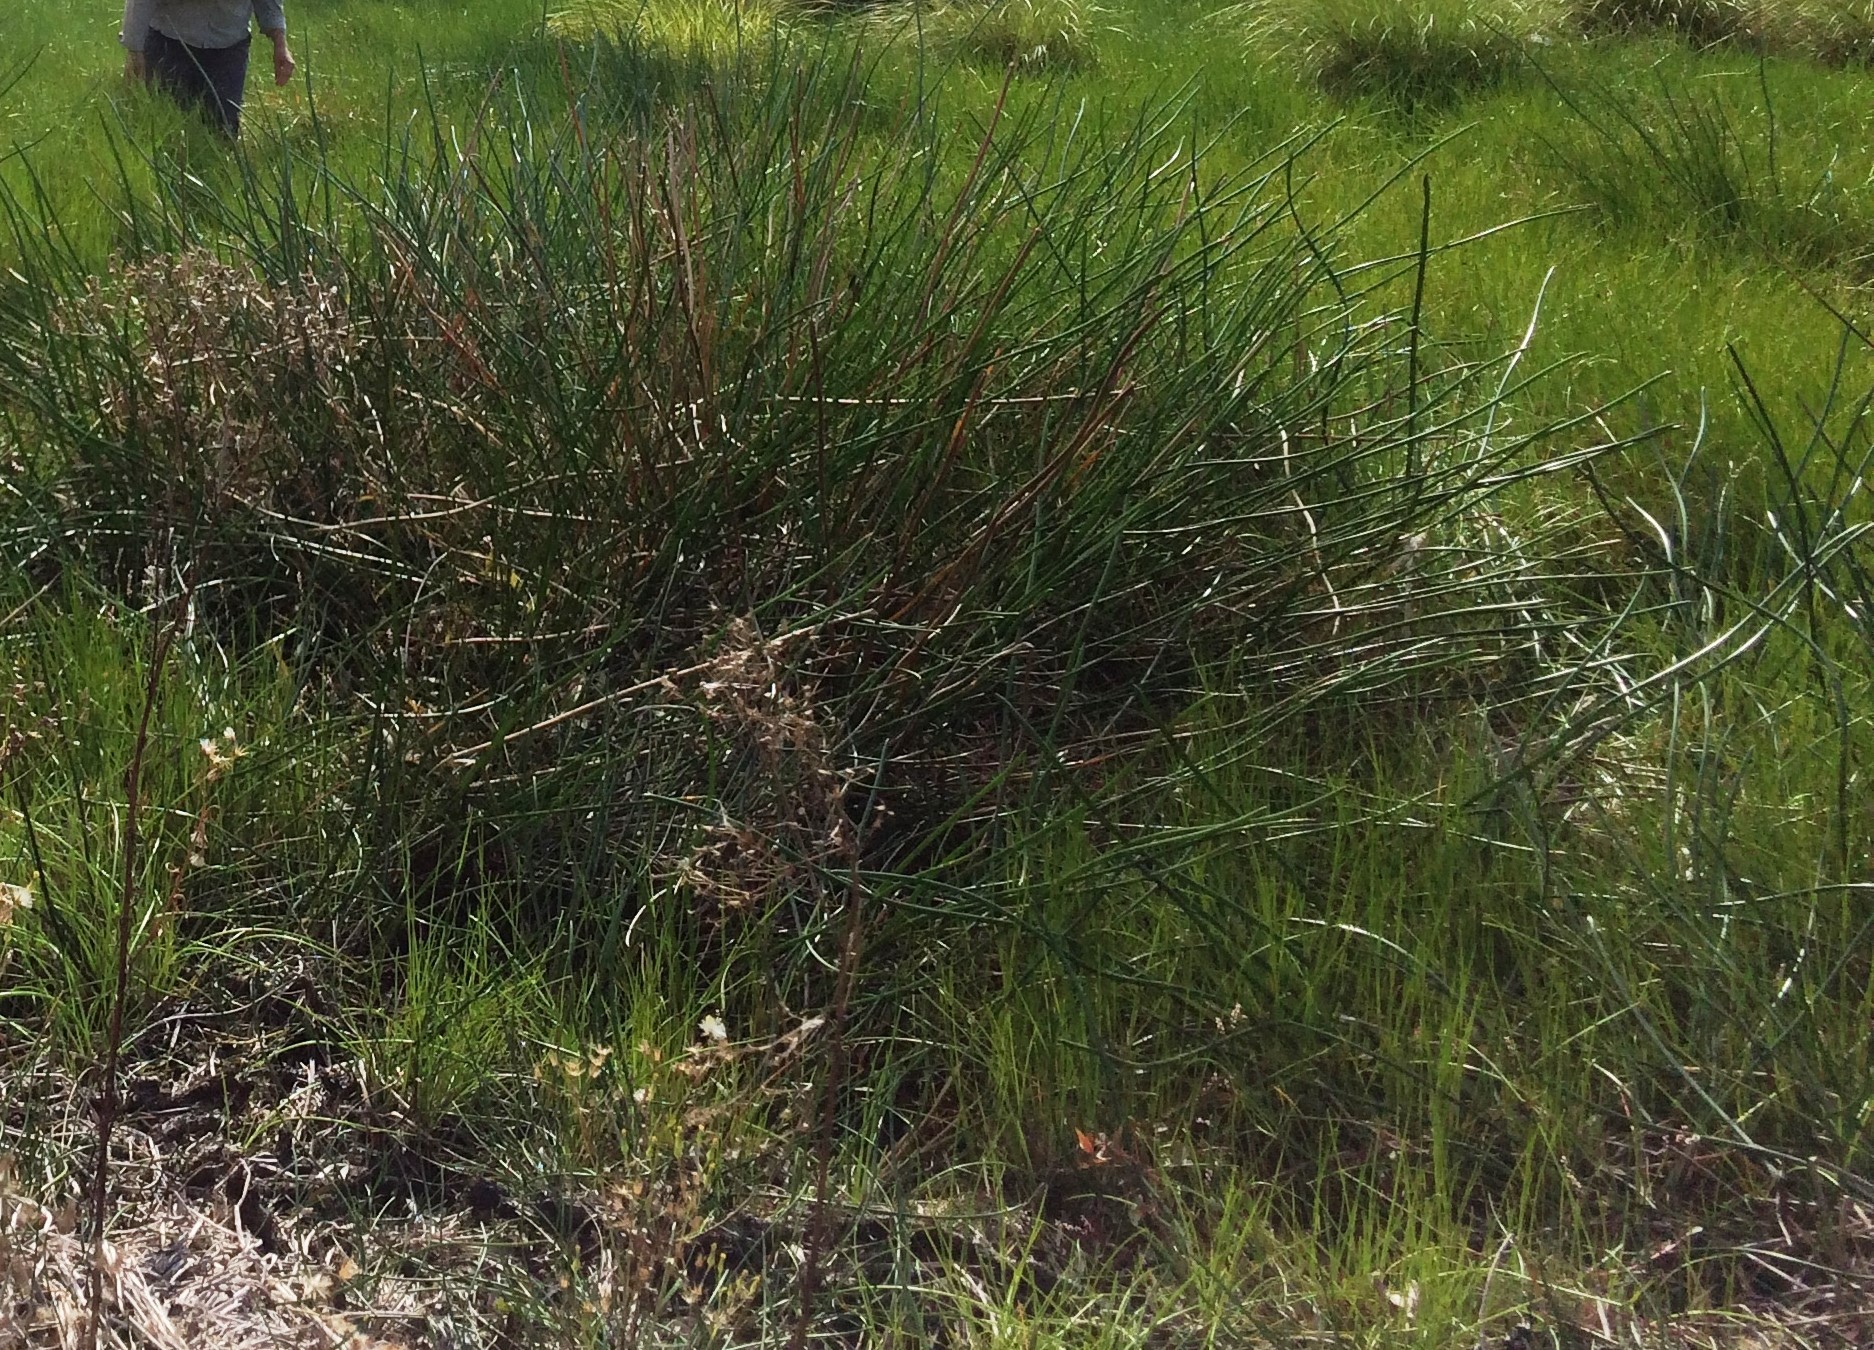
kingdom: Plantae
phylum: Tracheophyta
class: Liliopsida
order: Poales
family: Cyperaceae
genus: Eleocharis
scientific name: Eleocharis sphacelata
